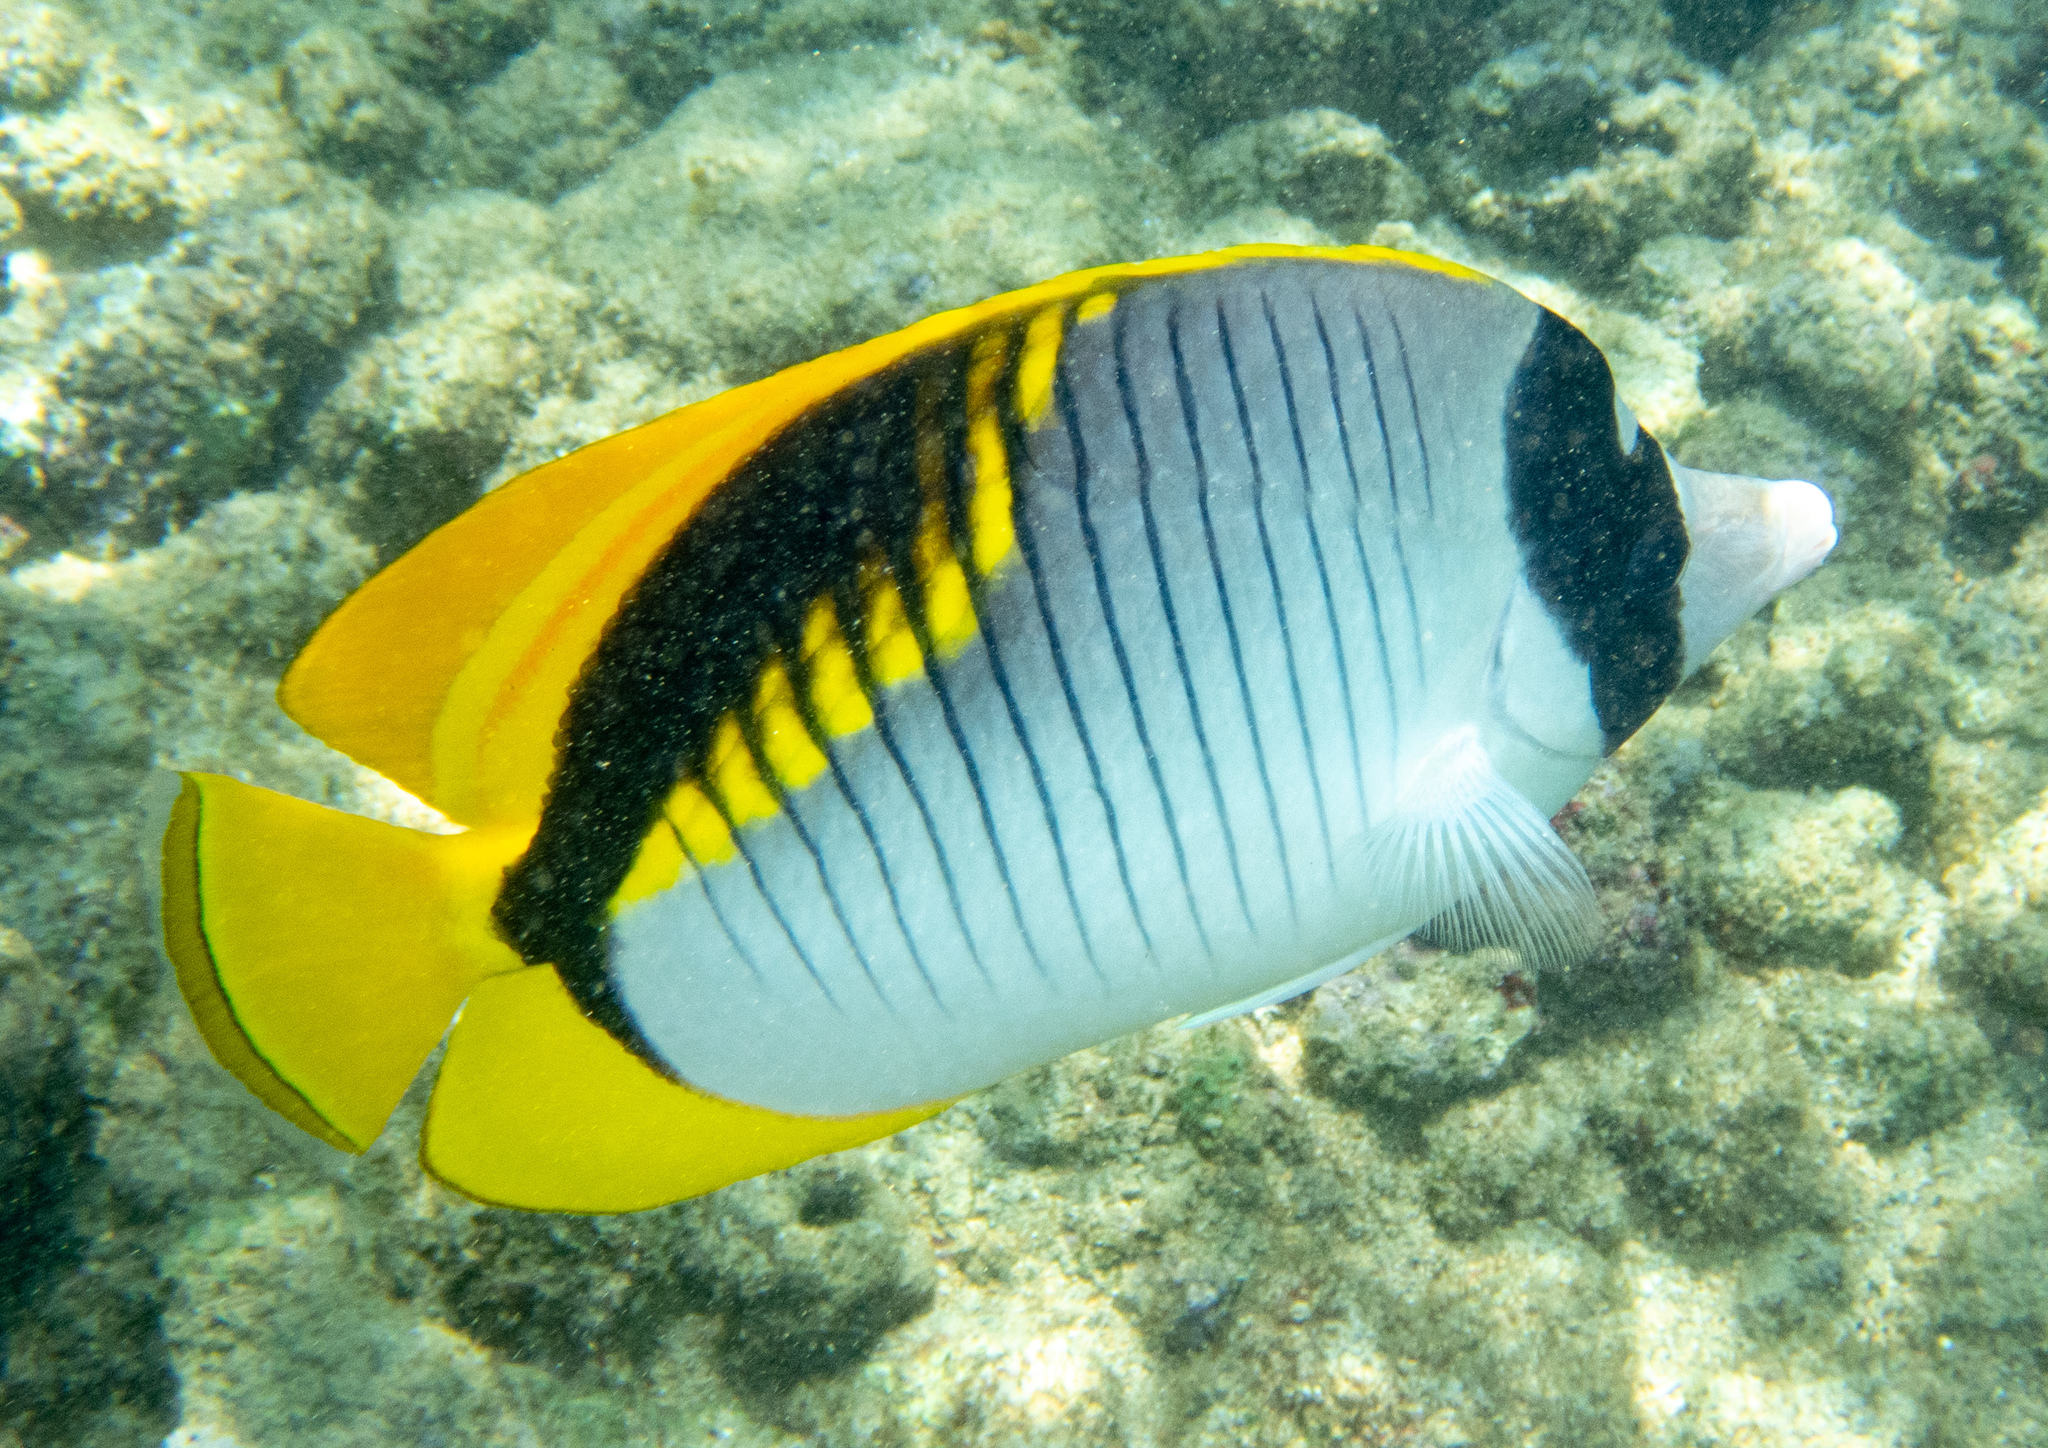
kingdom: Animalia
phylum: Chordata
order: Perciformes
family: Chaetodontidae
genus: Chaetodon
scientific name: Chaetodon lineolatus
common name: Lined butterflyfish
